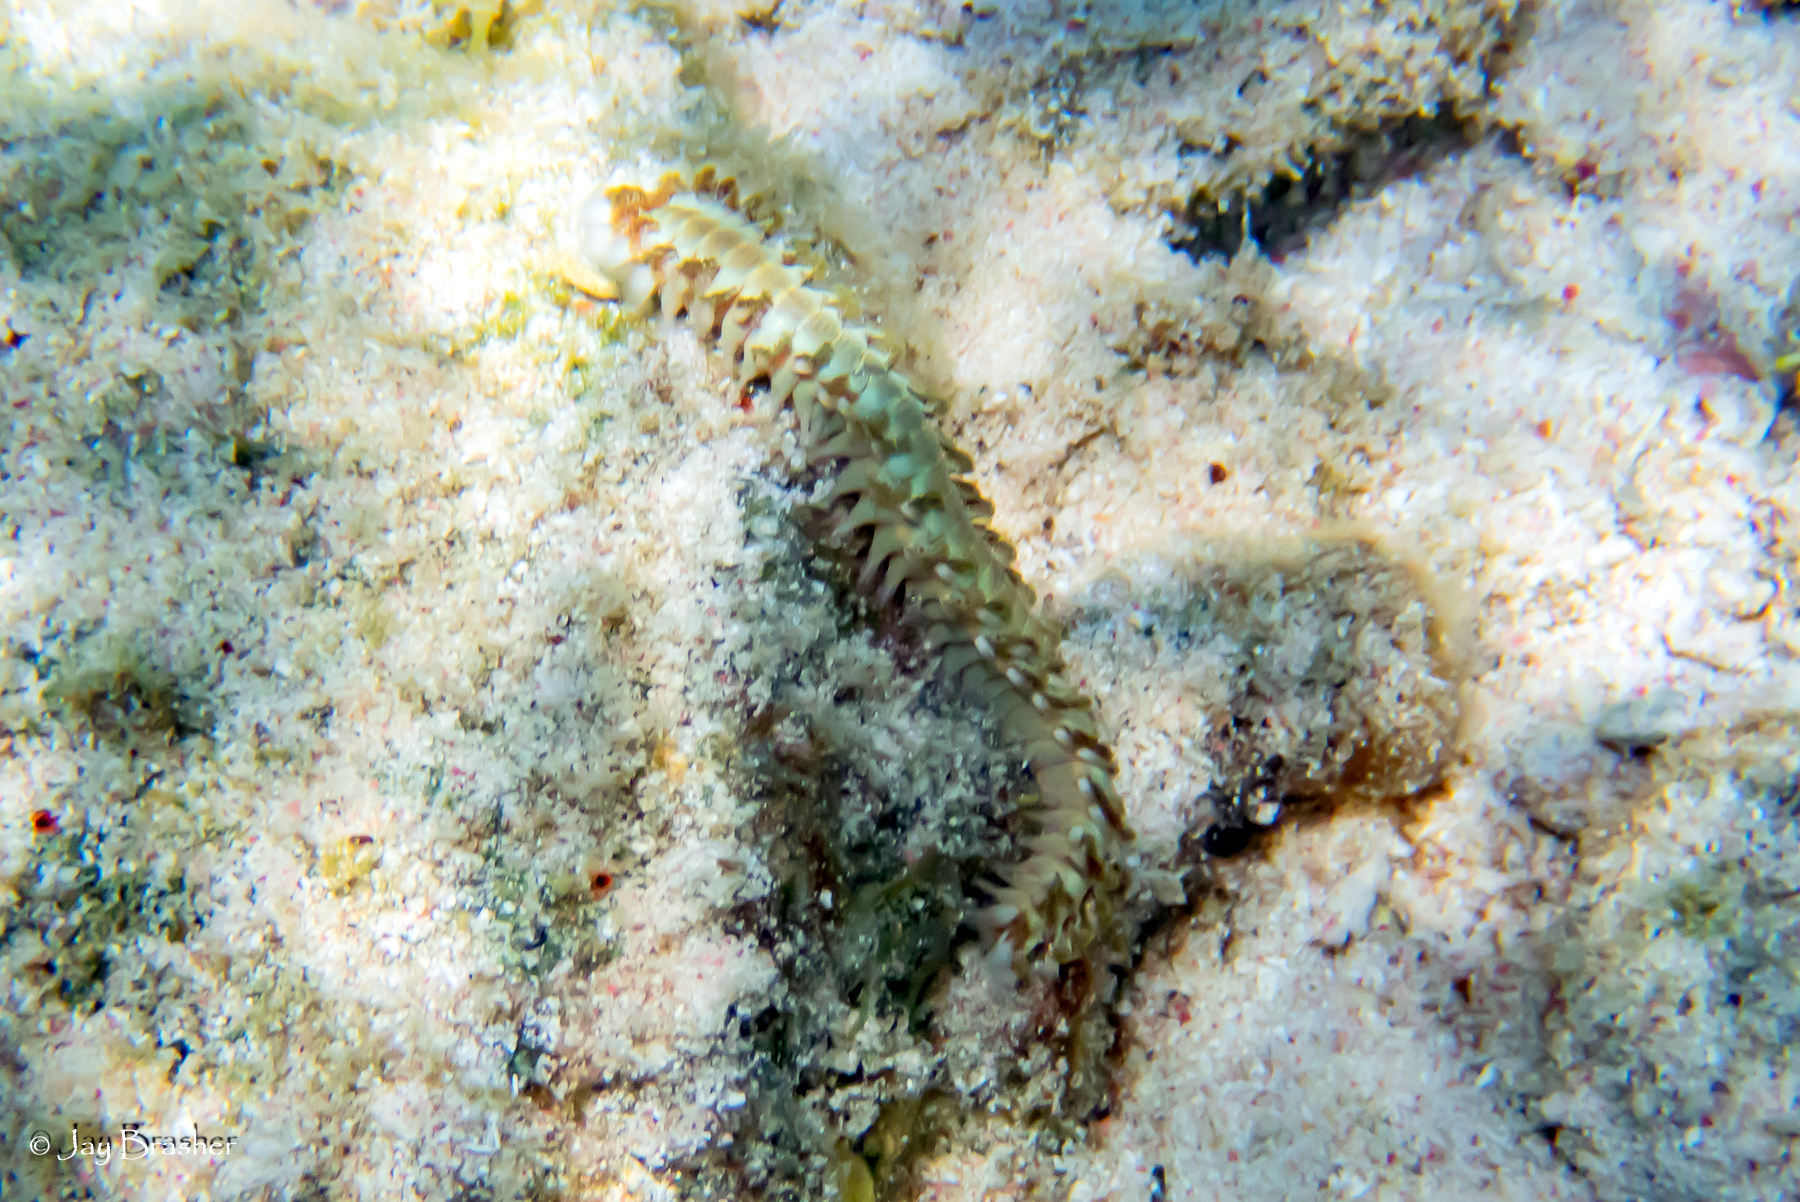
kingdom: Animalia
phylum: Annelida
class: Polychaeta
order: Amphinomida
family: Amphinomidae
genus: Hermodice
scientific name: Hermodice carunculata
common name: Bearded fireworm
